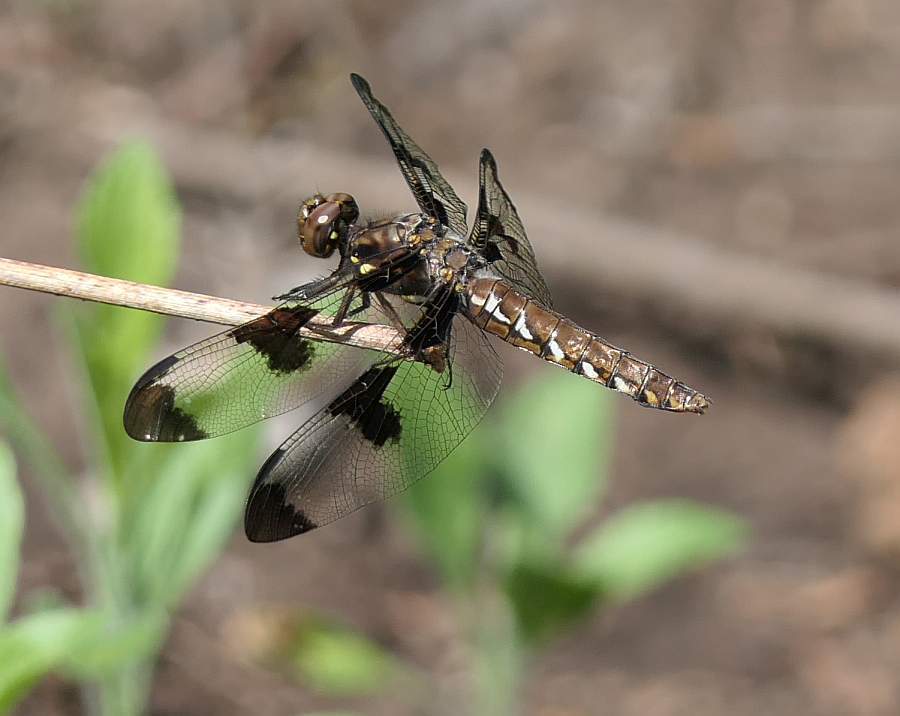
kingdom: Animalia
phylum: Arthropoda
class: Insecta
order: Odonata
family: Libellulidae
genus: Plathemis
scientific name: Plathemis lydia
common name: Common whitetail
